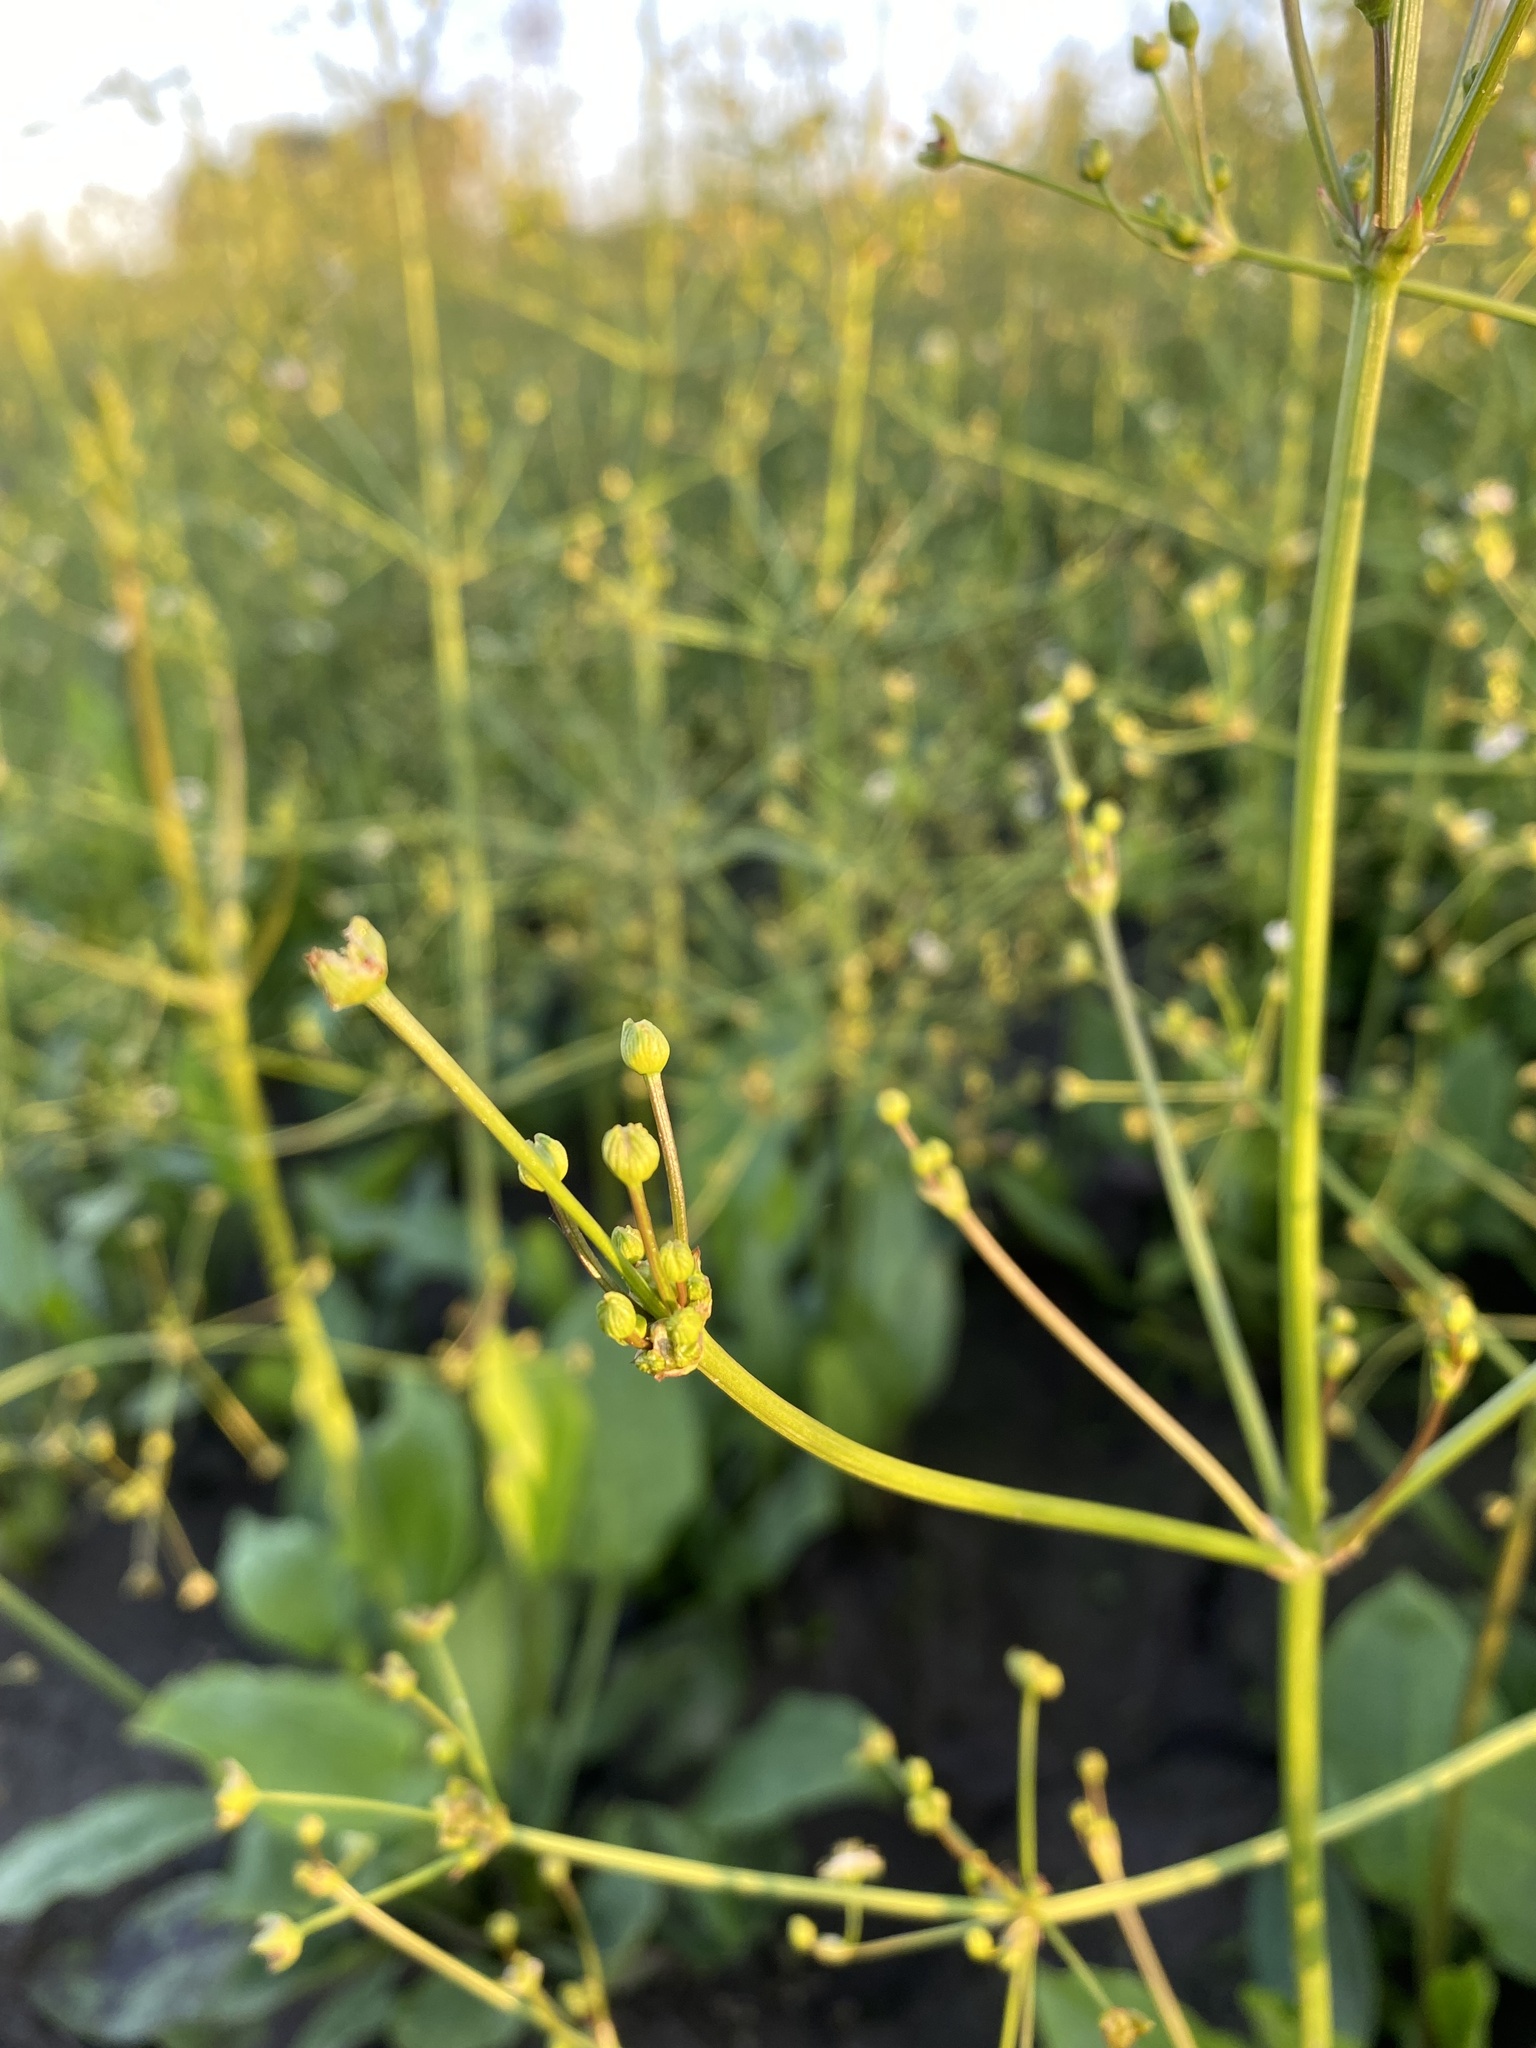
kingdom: Plantae
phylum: Tracheophyta
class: Liliopsida
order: Alismatales
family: Alismataceae
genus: Alisma
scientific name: Alisma plantago-aquatica
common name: Water-plantain
